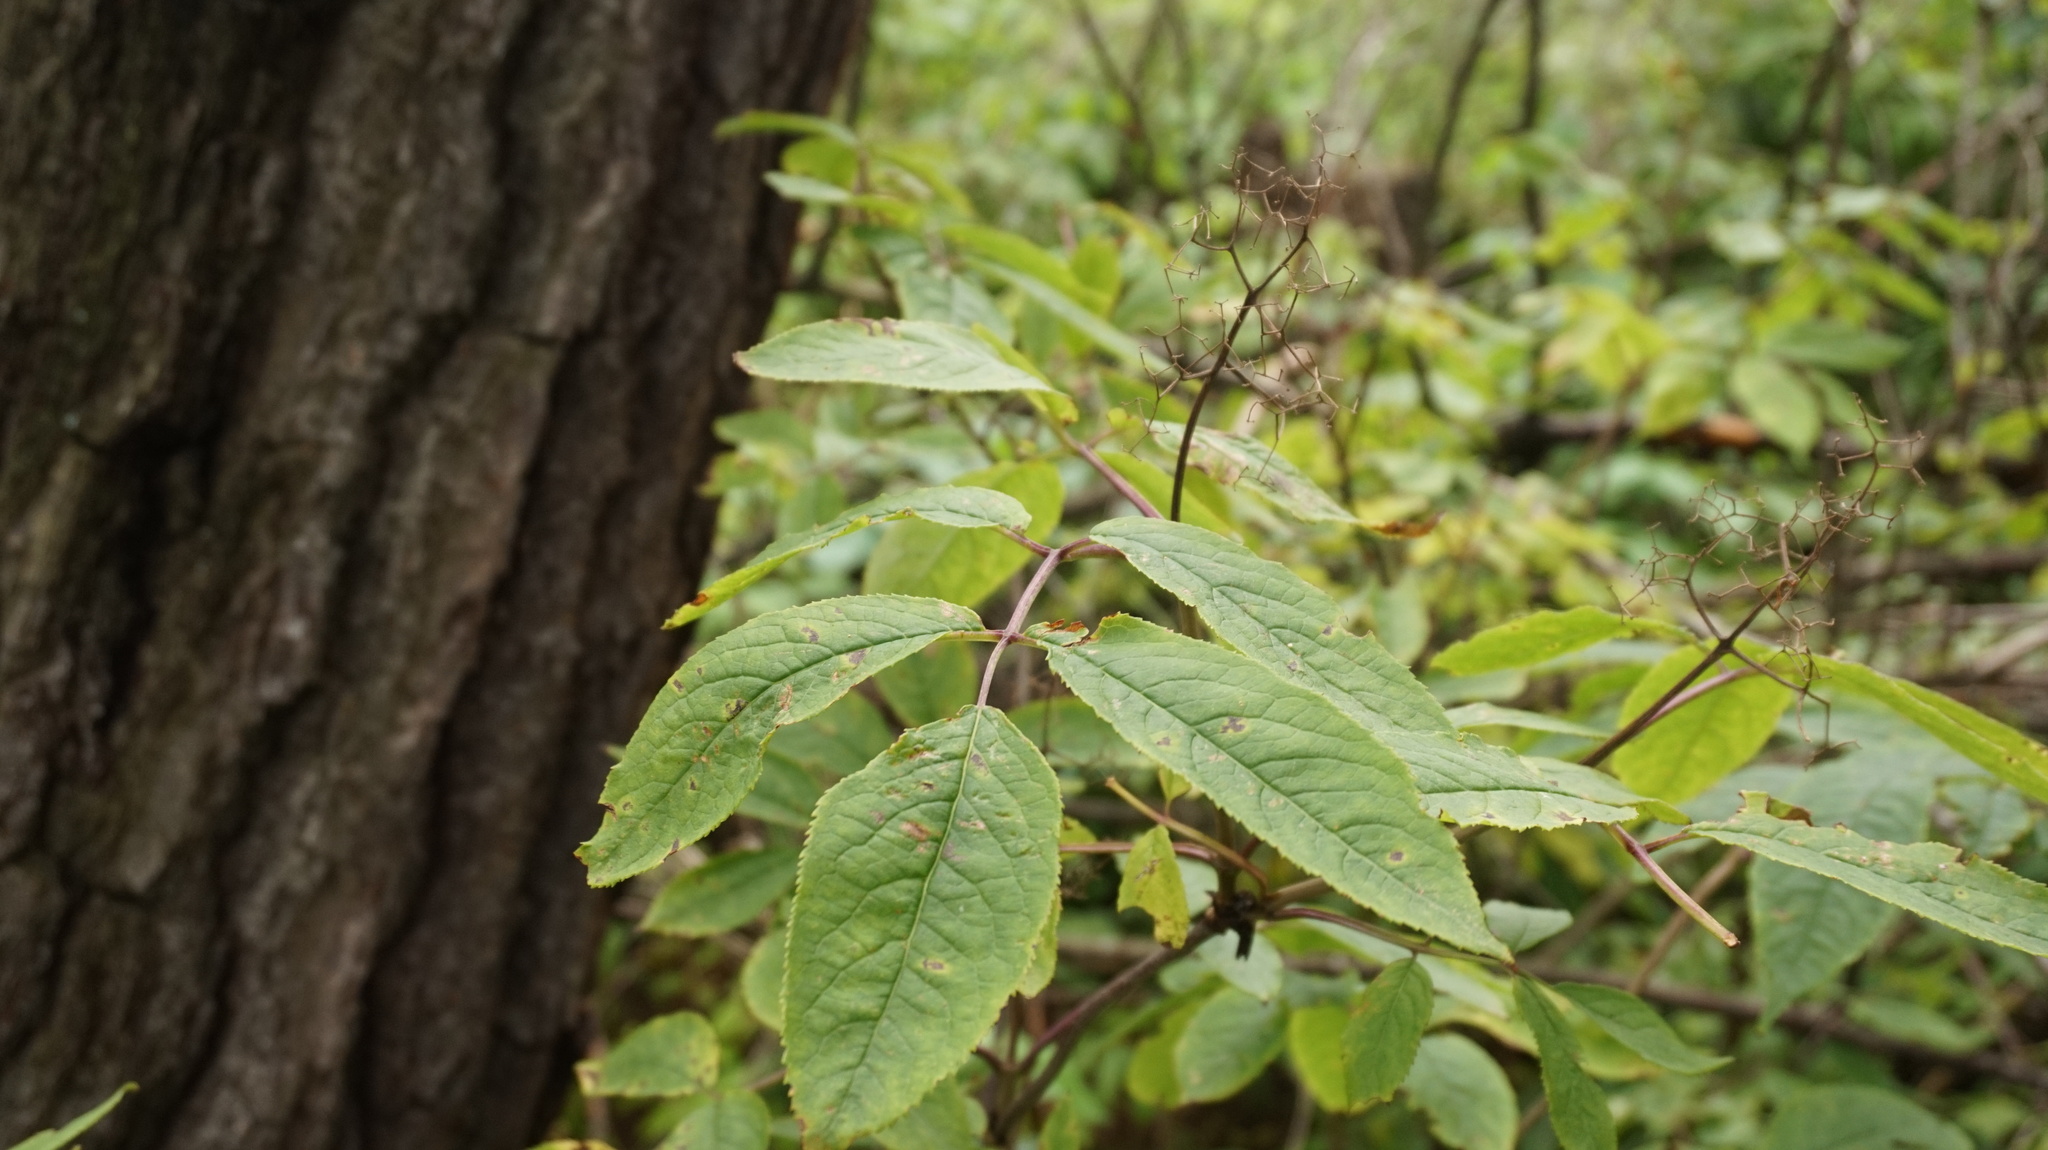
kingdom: Plantae
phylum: Tracheophyta
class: Magnoliopsida
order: Dipsacales
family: Viburnaceae
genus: Sambucus
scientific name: Sambucus racemosa
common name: Red-berried elder
